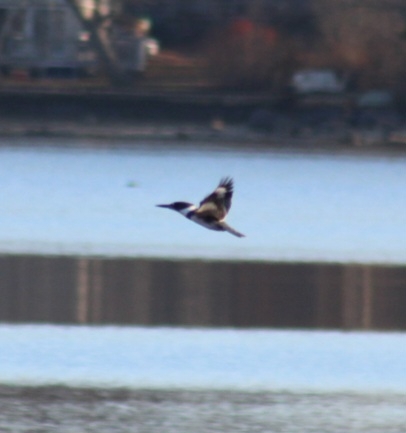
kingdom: Animalia
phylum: Chordata
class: Aves
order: Coraciiformes
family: Alcedinidae
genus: Megaceryle
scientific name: Megaceryle alcyon
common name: Belted kingfisher
